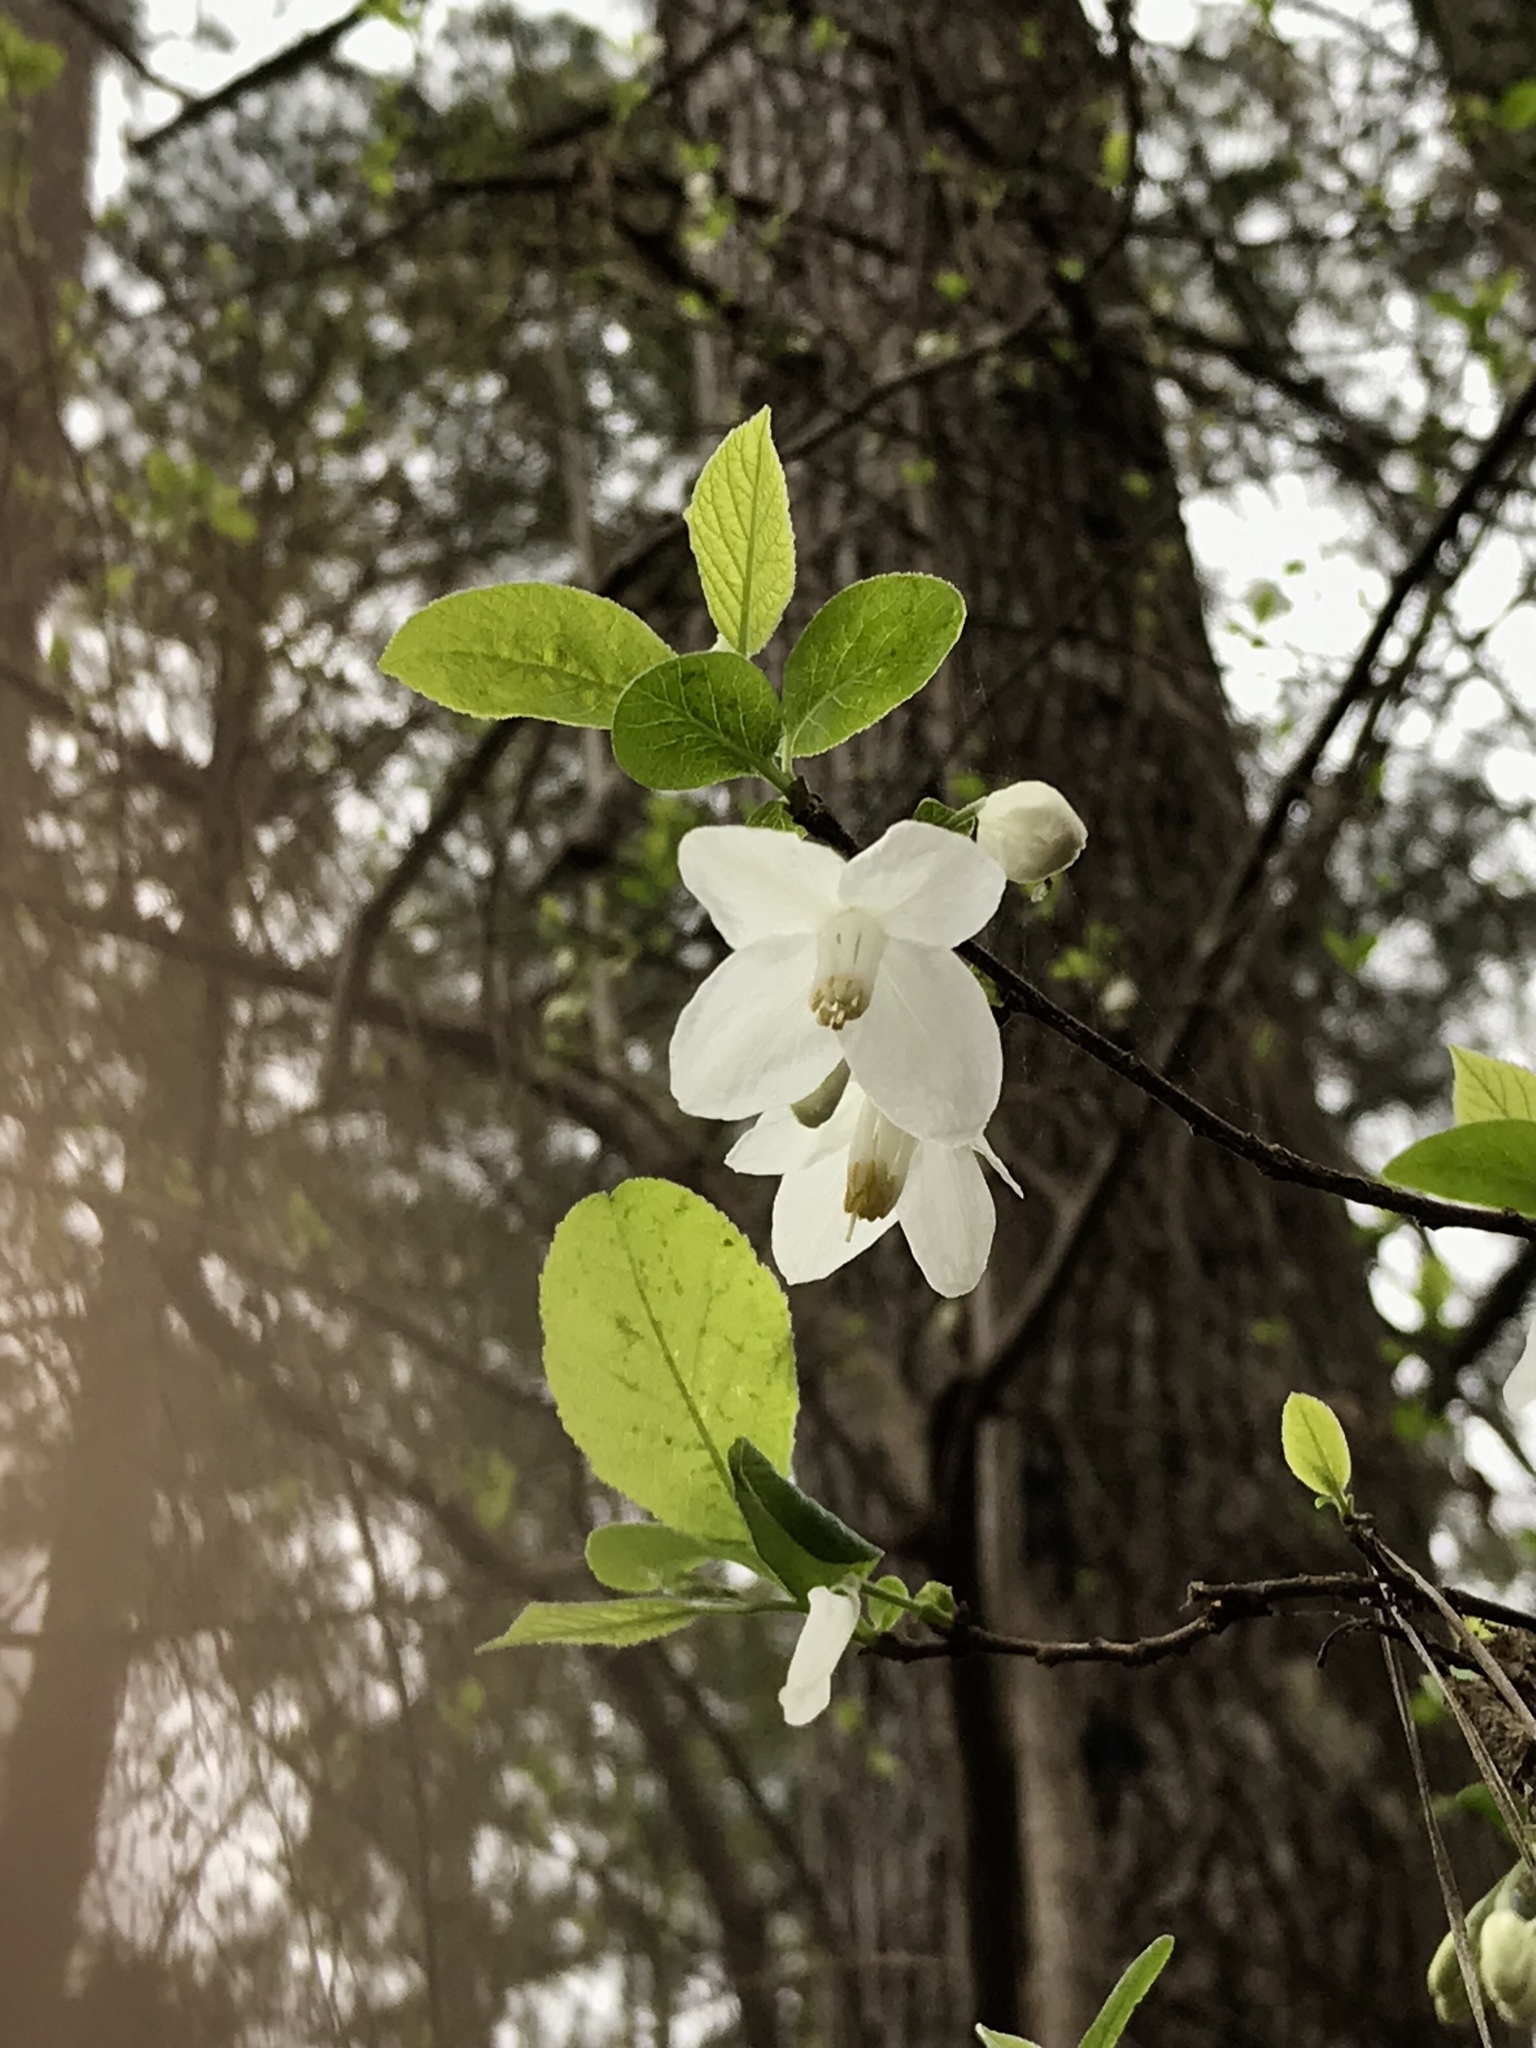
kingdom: Plantae
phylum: Tracheophyta
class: Magnoliopsida
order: Ericales
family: Styracaceae
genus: Halesia
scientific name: Halesia diptera
